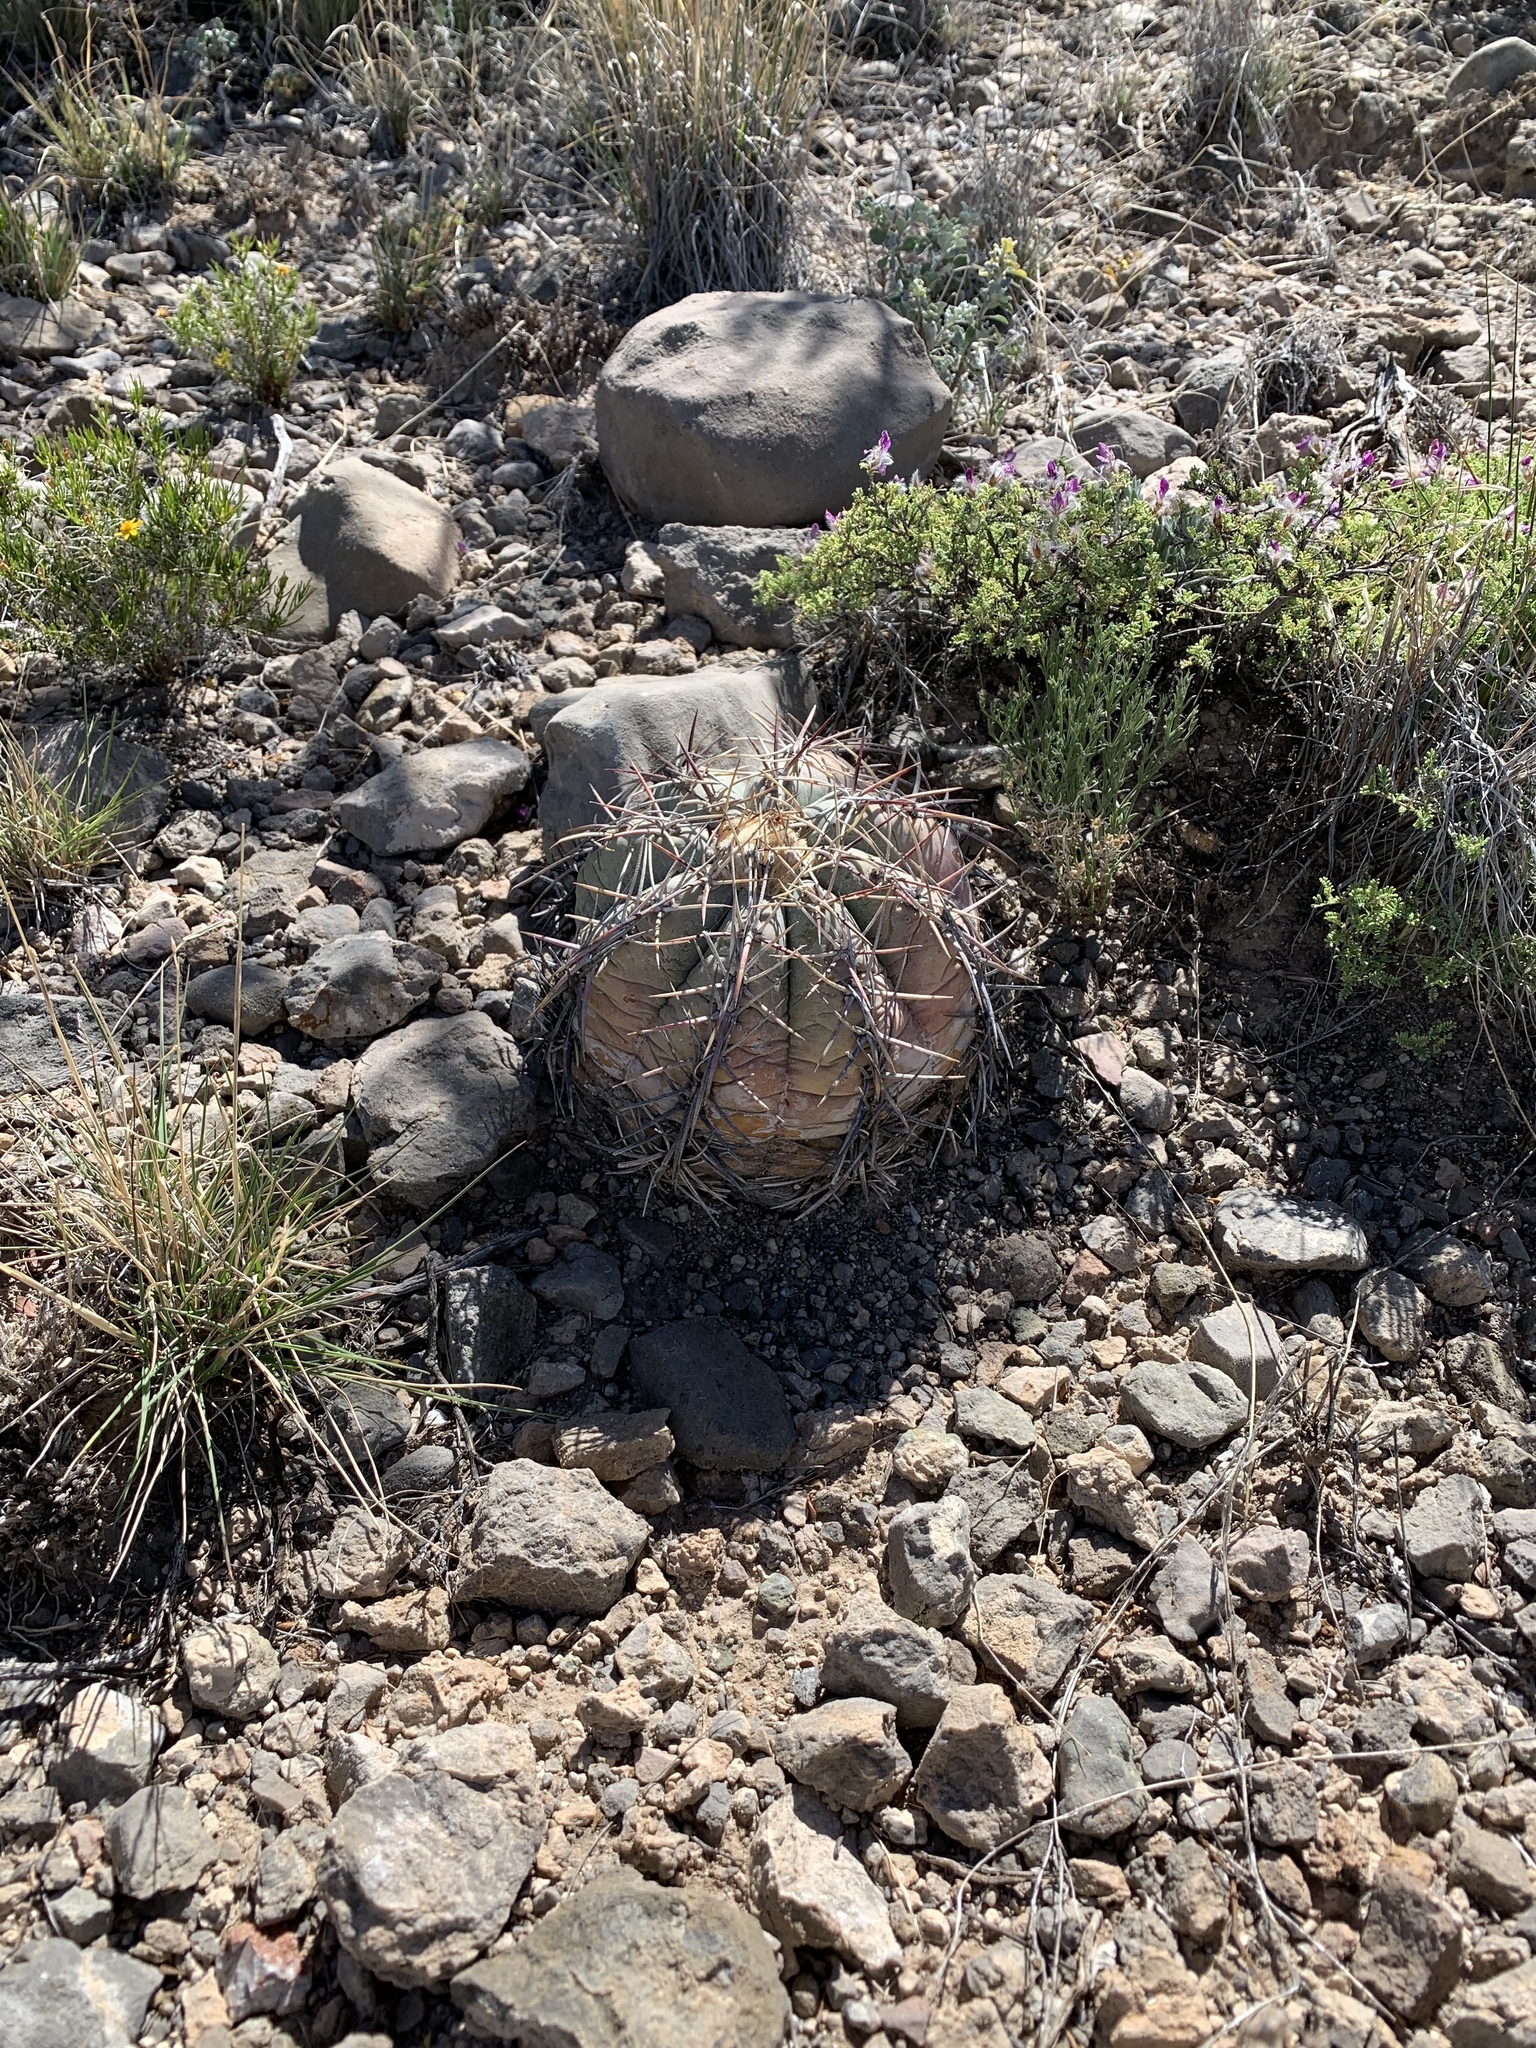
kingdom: Plantae
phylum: Tracheophyta
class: Magnoliopsida
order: Caryophyllales
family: Cactaceae
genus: Echinocactus
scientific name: Echinocactus horizonthalonius
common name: Devilshead
